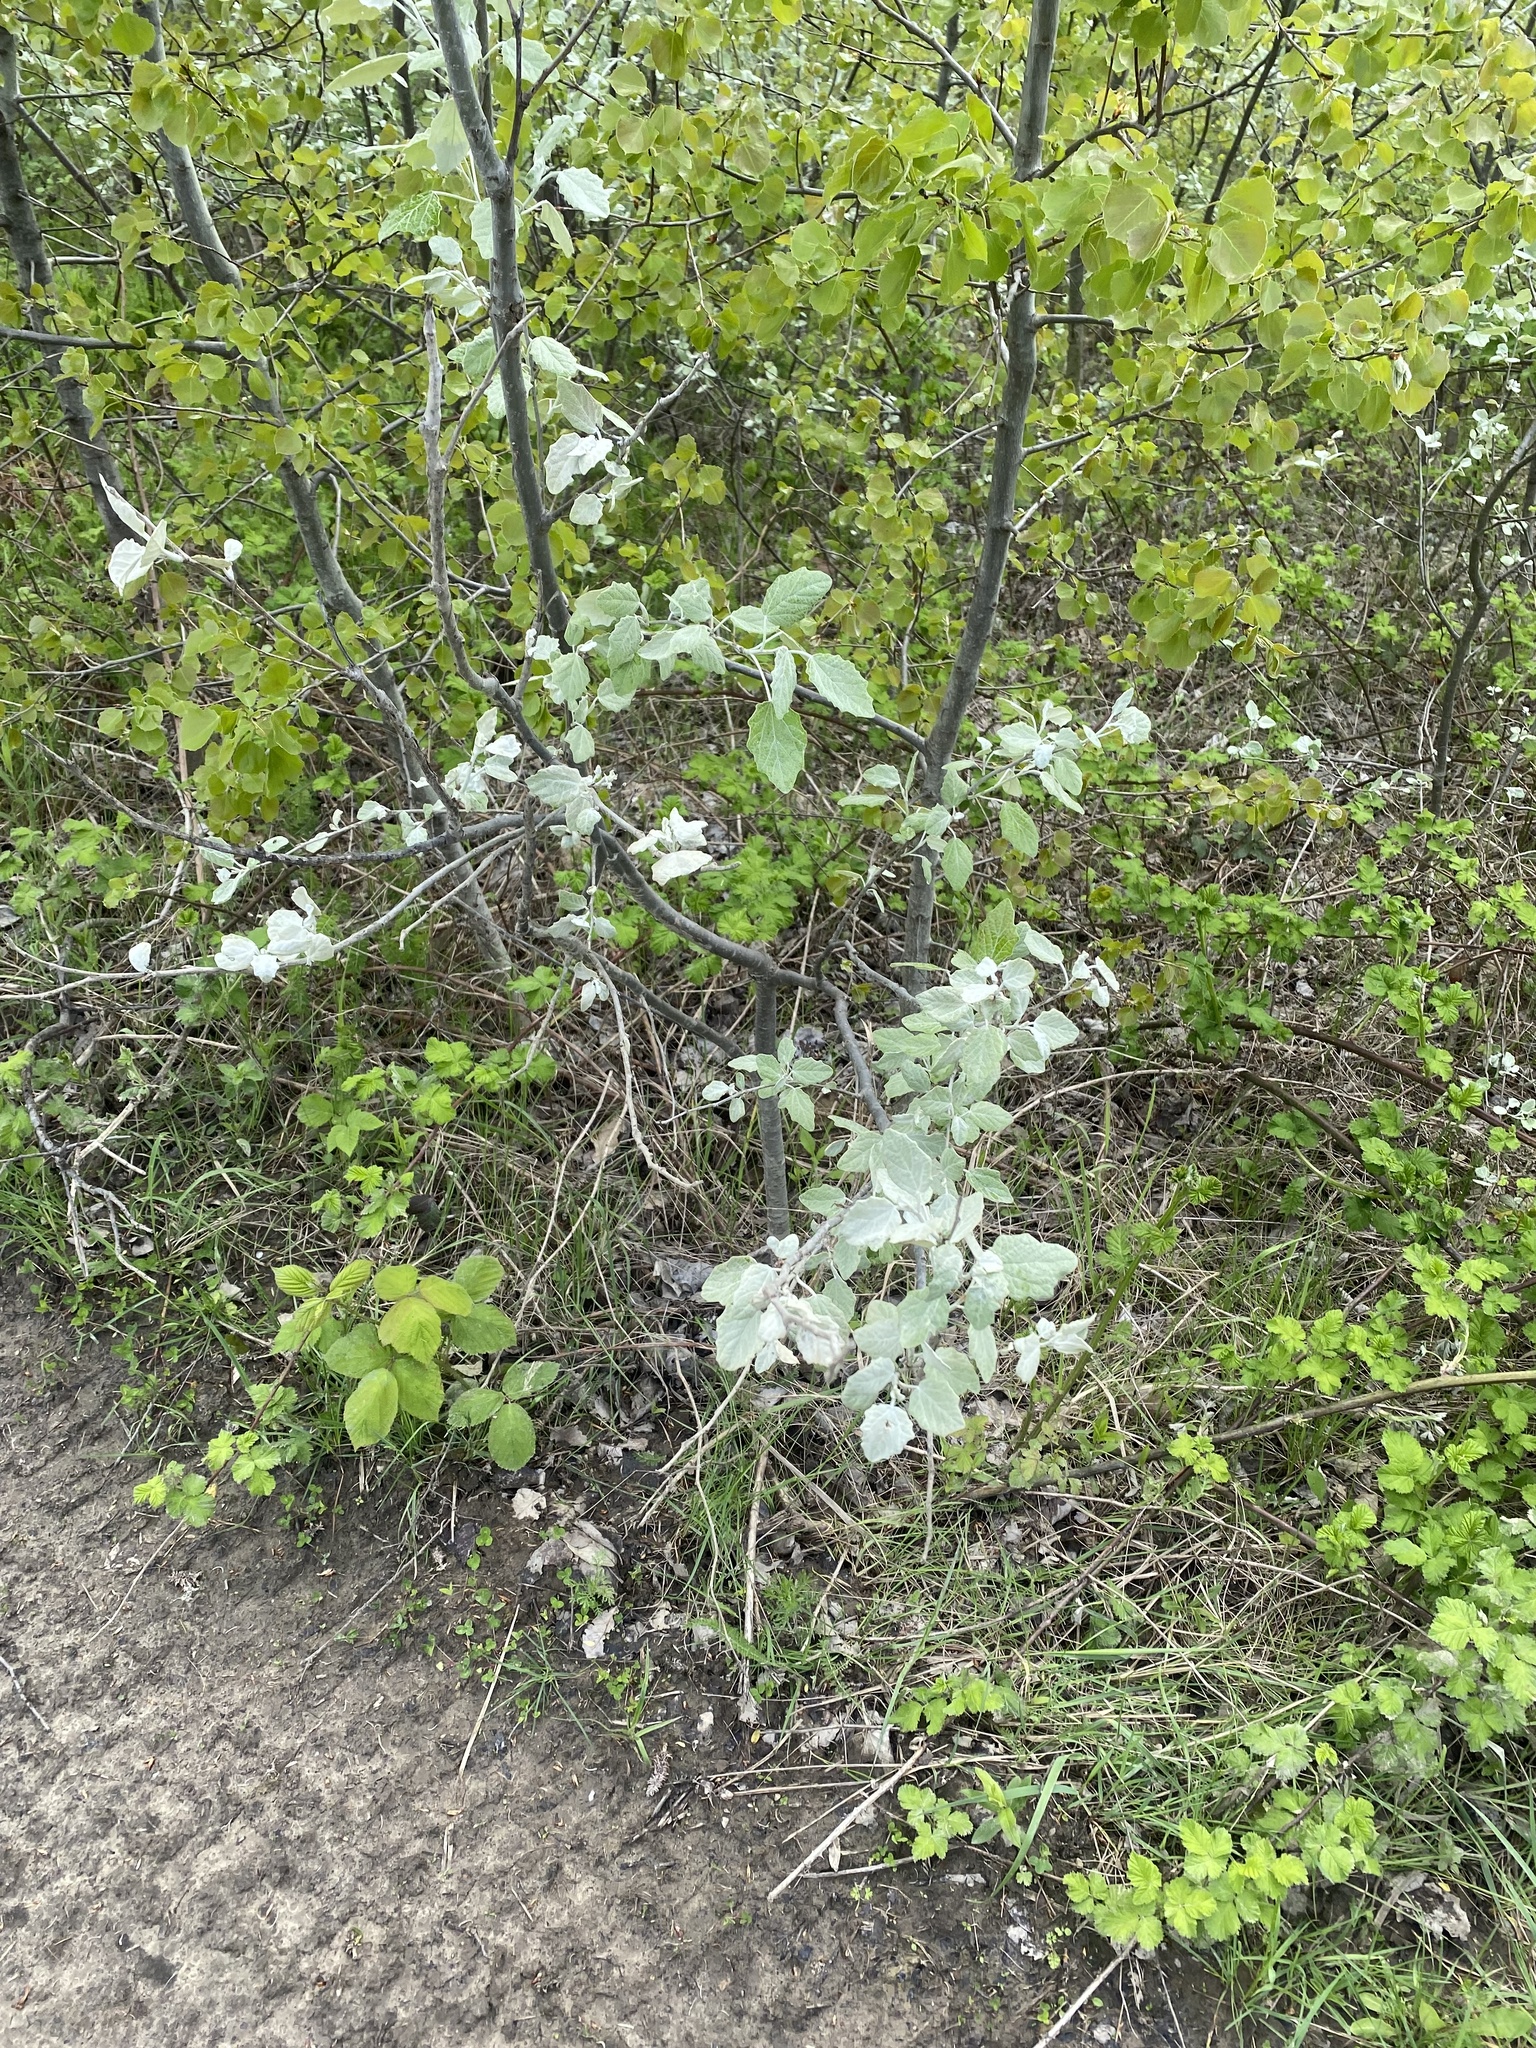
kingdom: Plantae
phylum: Tracheophyta
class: Magnoliopsida
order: Malpighiales
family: Salicaceae
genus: Populus
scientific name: Populus alba
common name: White poplar
